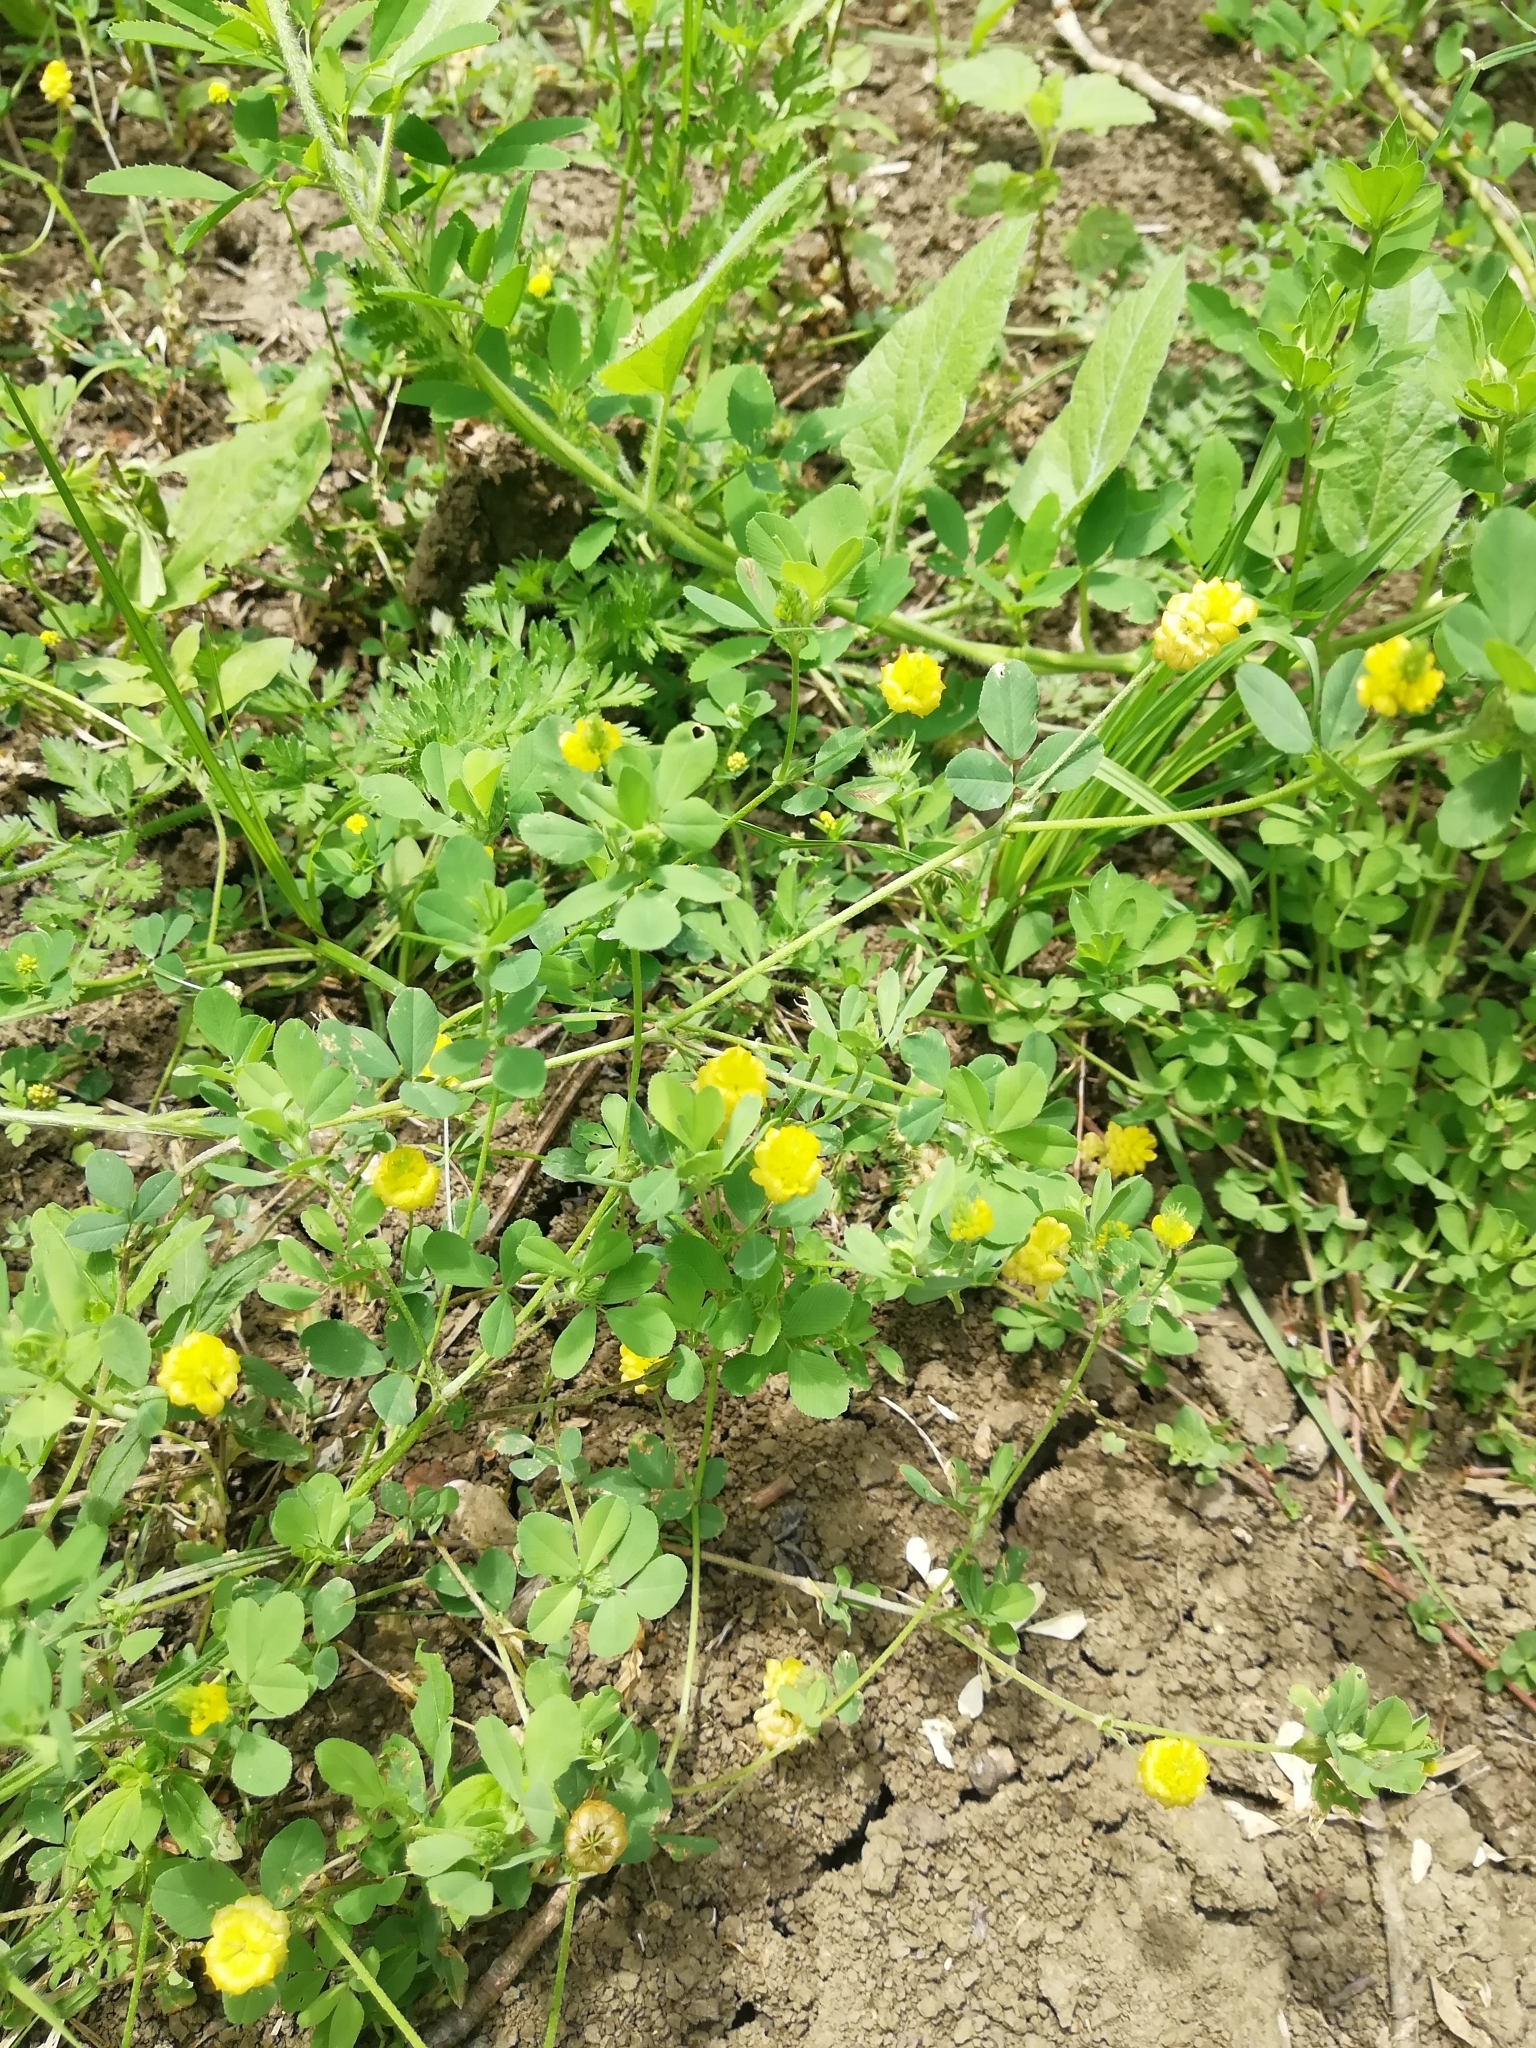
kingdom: Plantae
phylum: Tracheophyta
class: Magnoliopsida
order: Fabales
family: Fabaceae
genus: Trifolium
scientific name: Trifolium campestre
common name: Field clover
